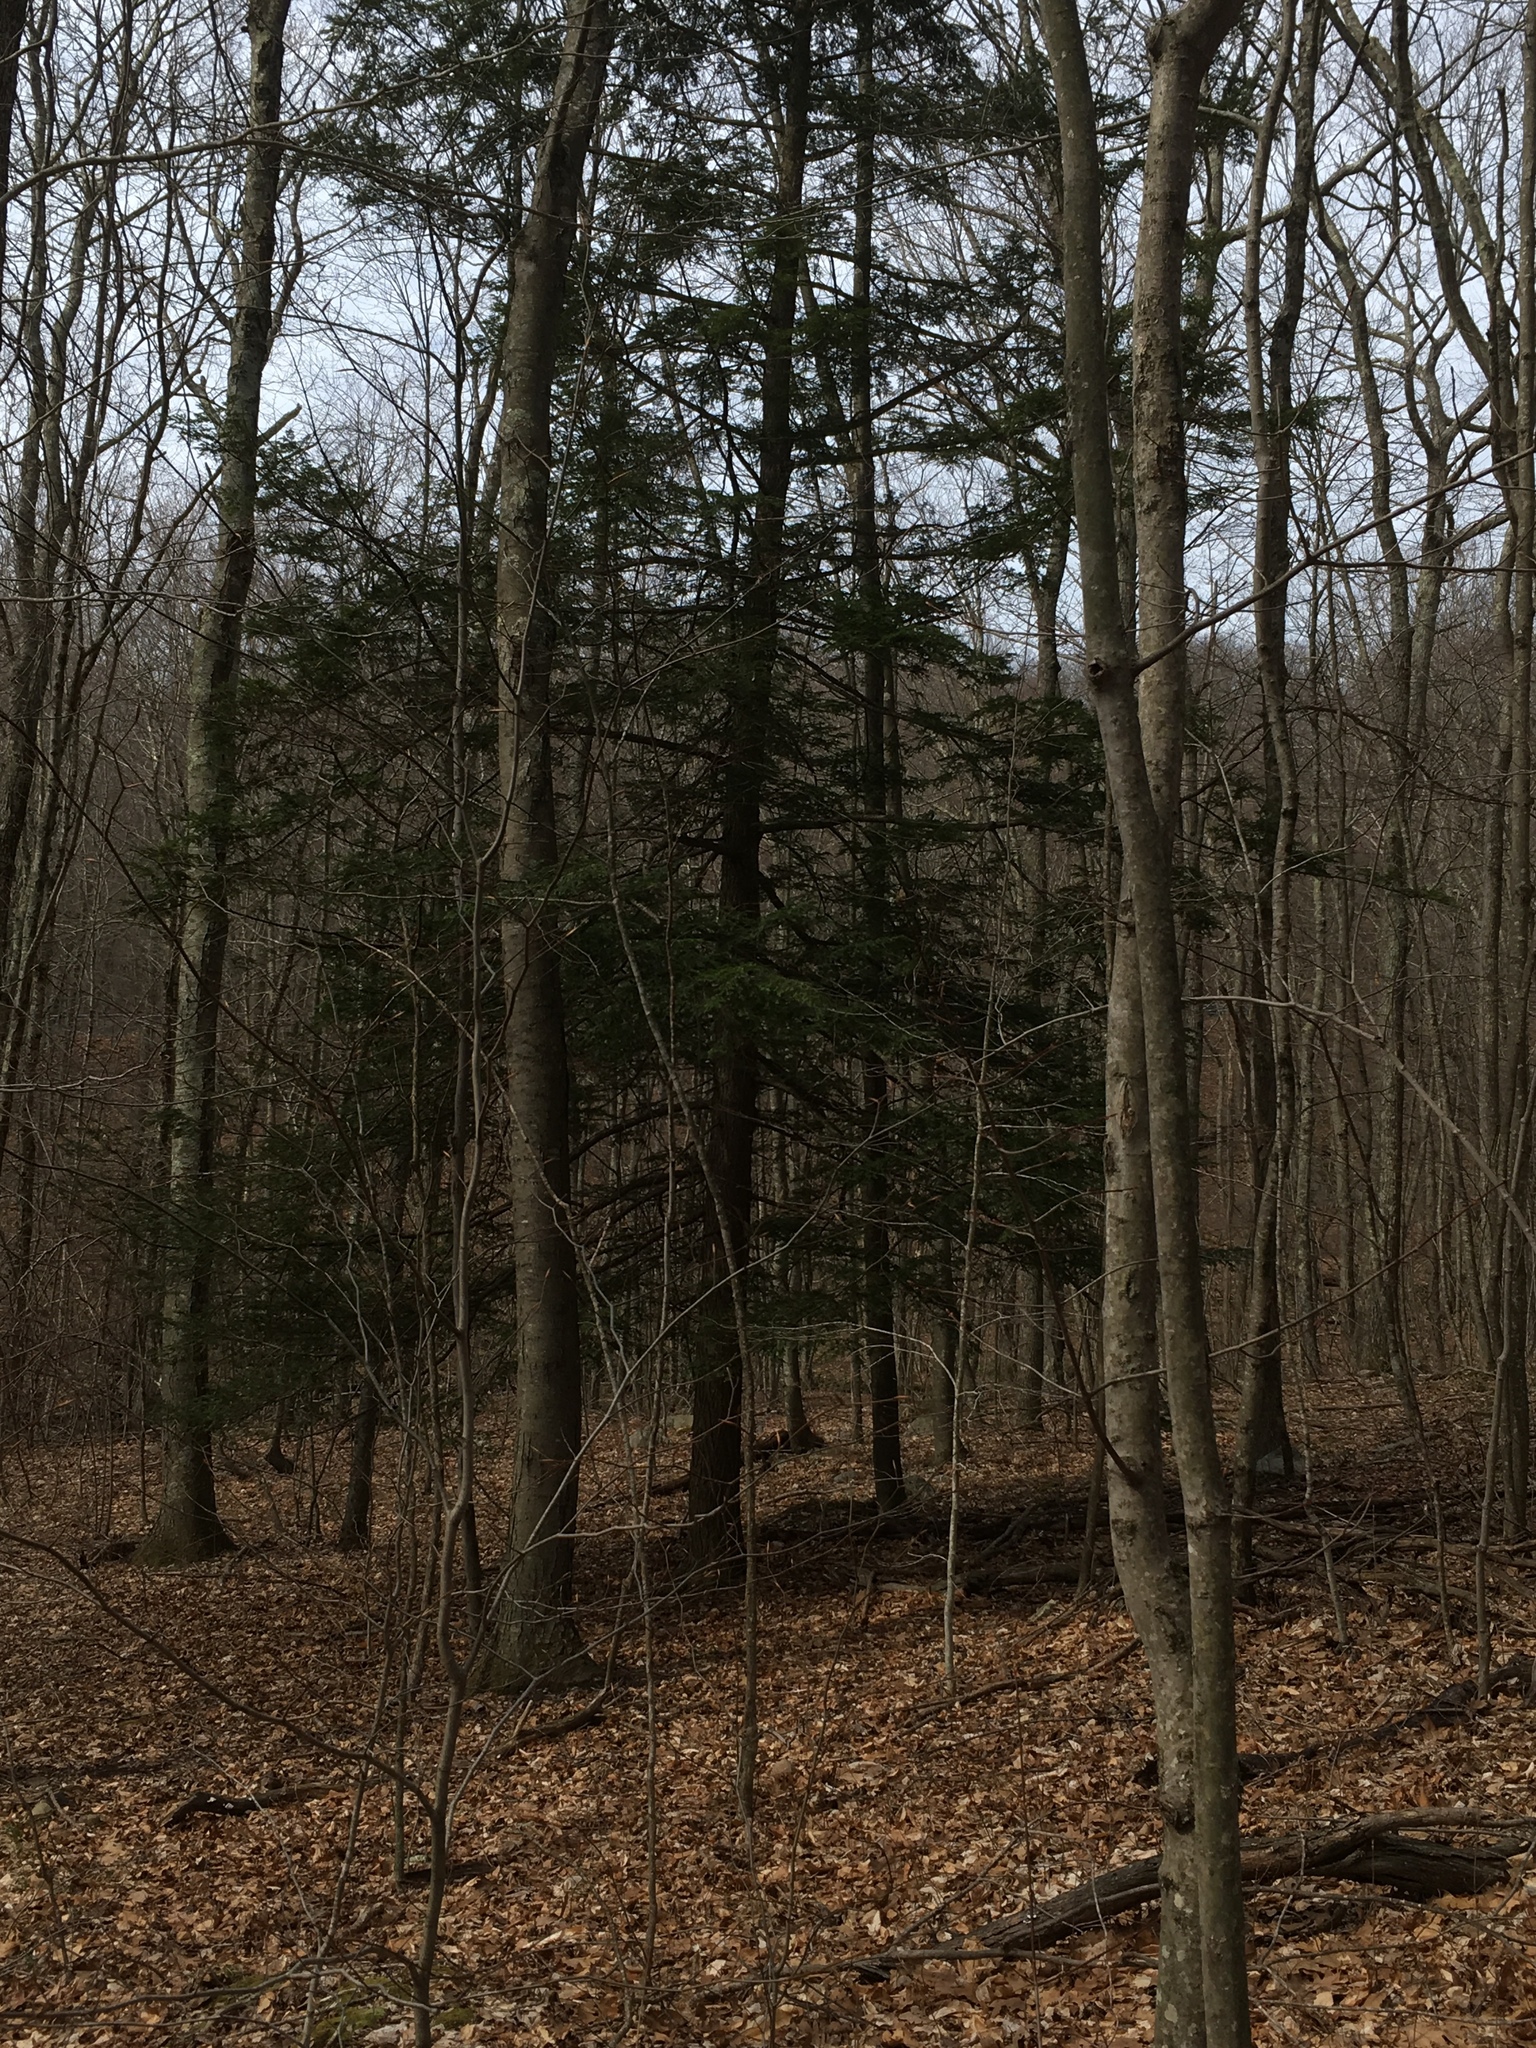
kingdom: Plantae
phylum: Tracheophyta
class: Pinopsida
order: Pinales
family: Pinaceae
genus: Tsuga
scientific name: Tsuga canadensis
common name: Eastern hemlock
